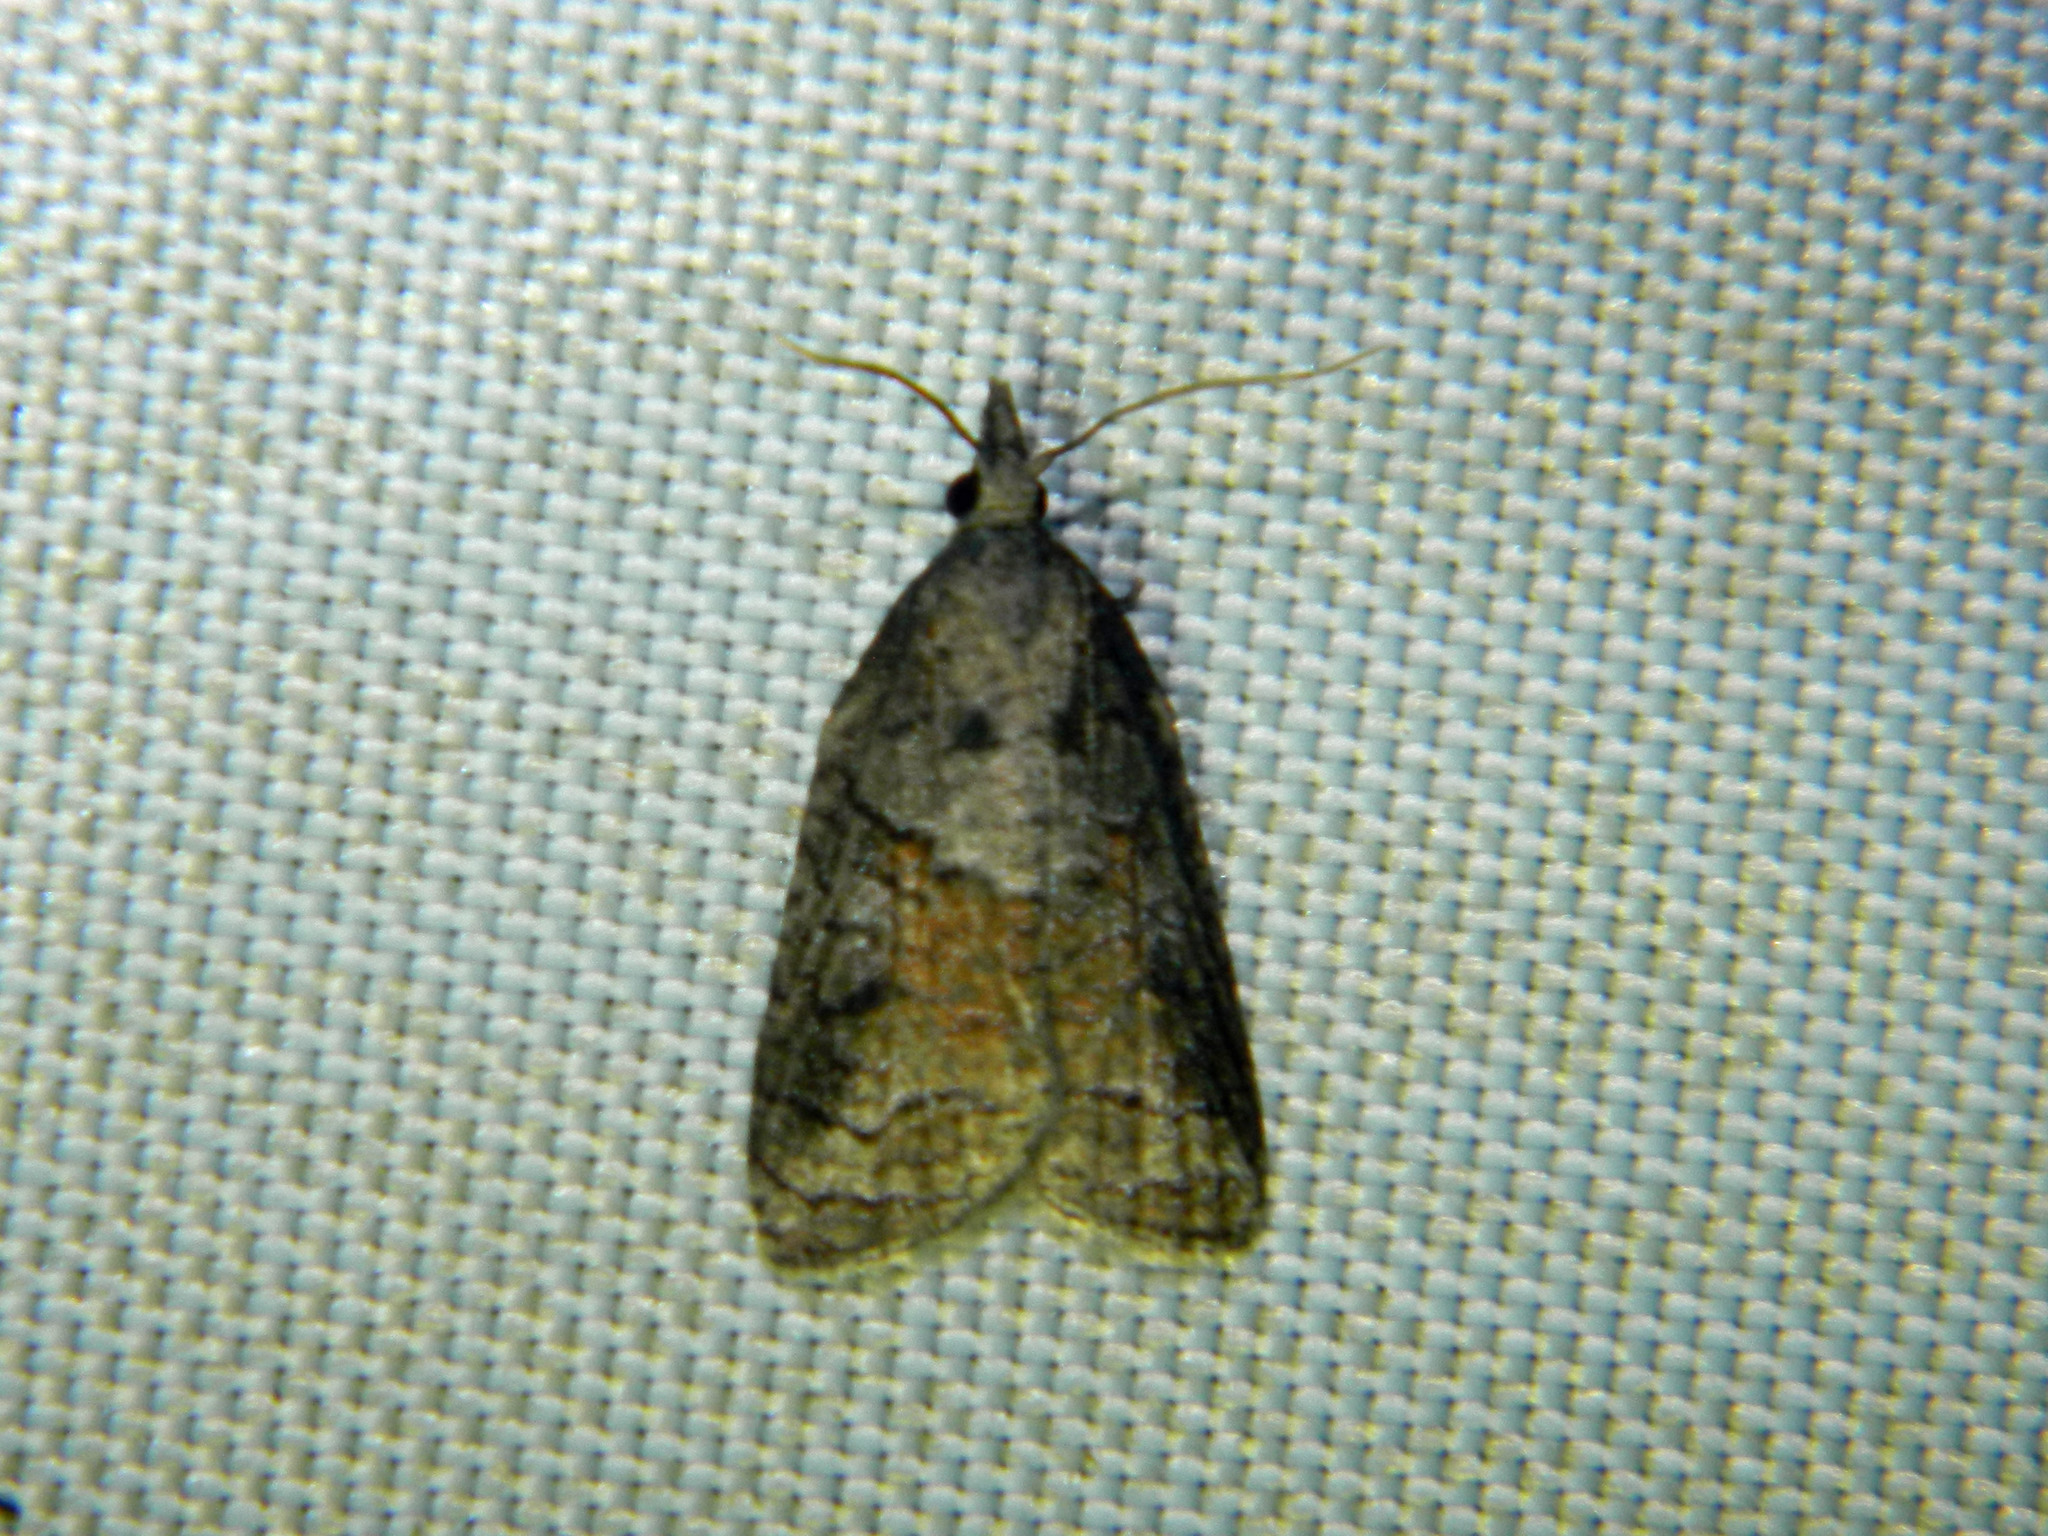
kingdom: Animalia
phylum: Arthropoda
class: Insecta
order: Lepidoptera
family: Tortricidae
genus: Platynota
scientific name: Platynota idaeusalis
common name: Tufted apple bud moth
